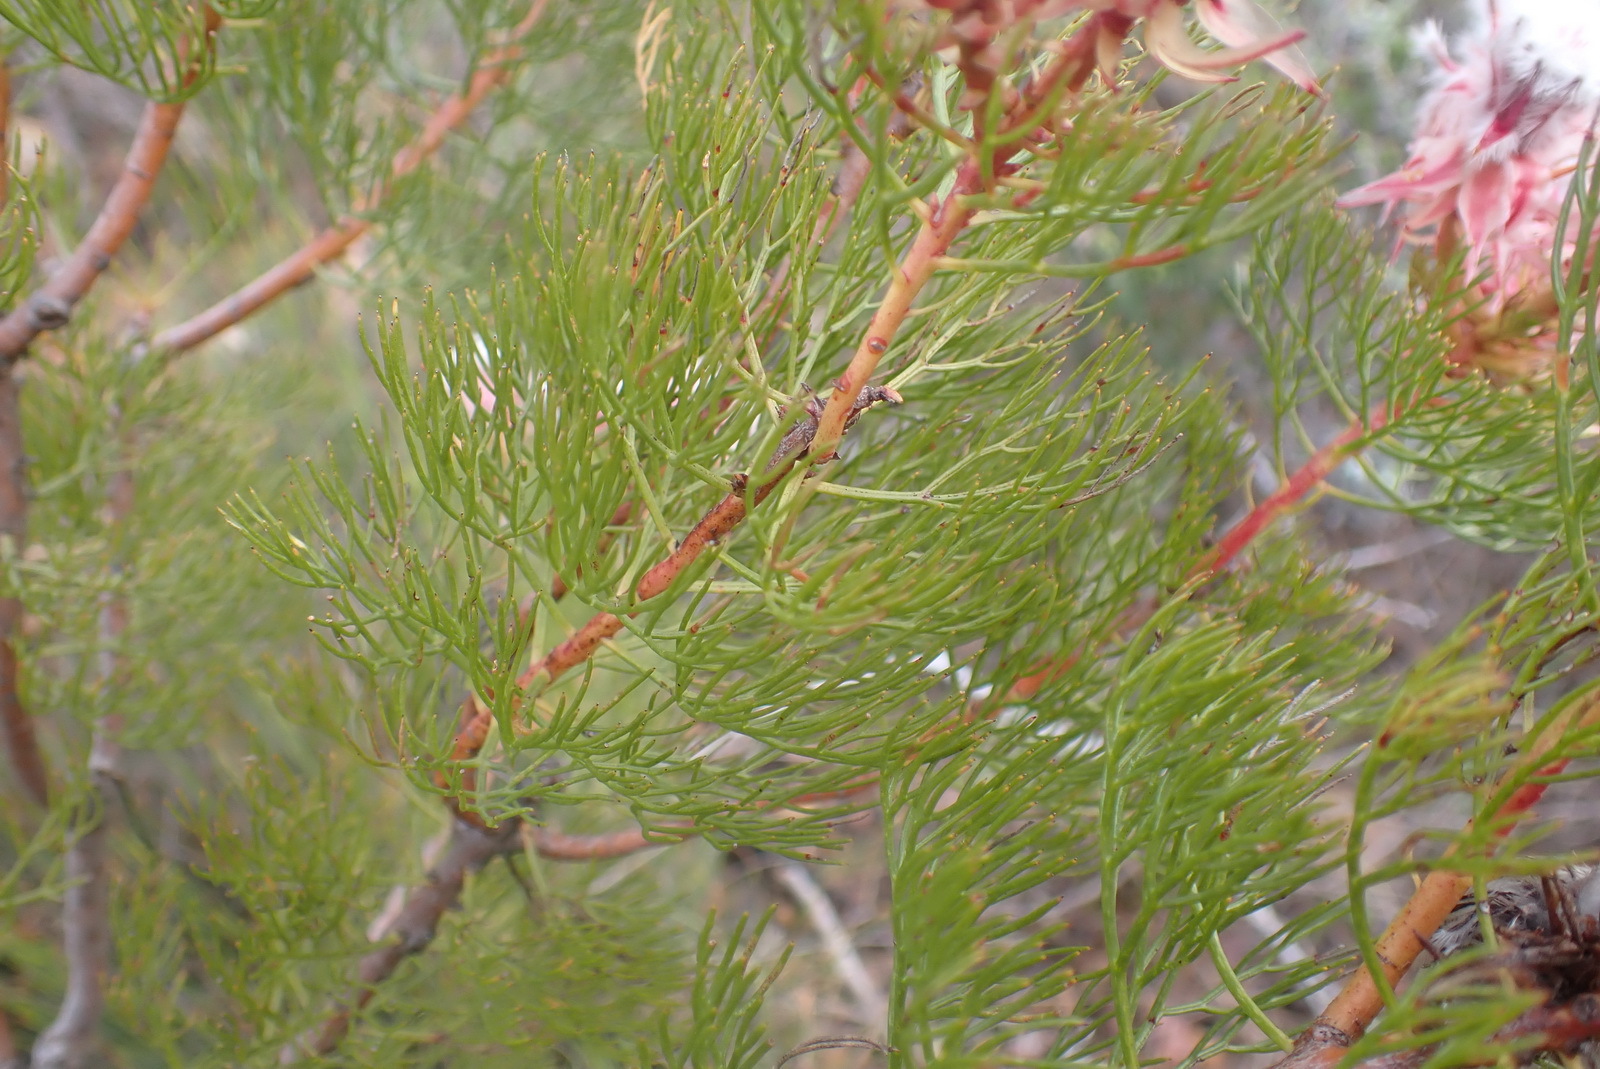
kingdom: Plantae
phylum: Tracheophyta
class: Magnoliopsida
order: Proteales
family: Proteaceae
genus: Serruria
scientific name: Serruria rosea
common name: Rose spiderhead
